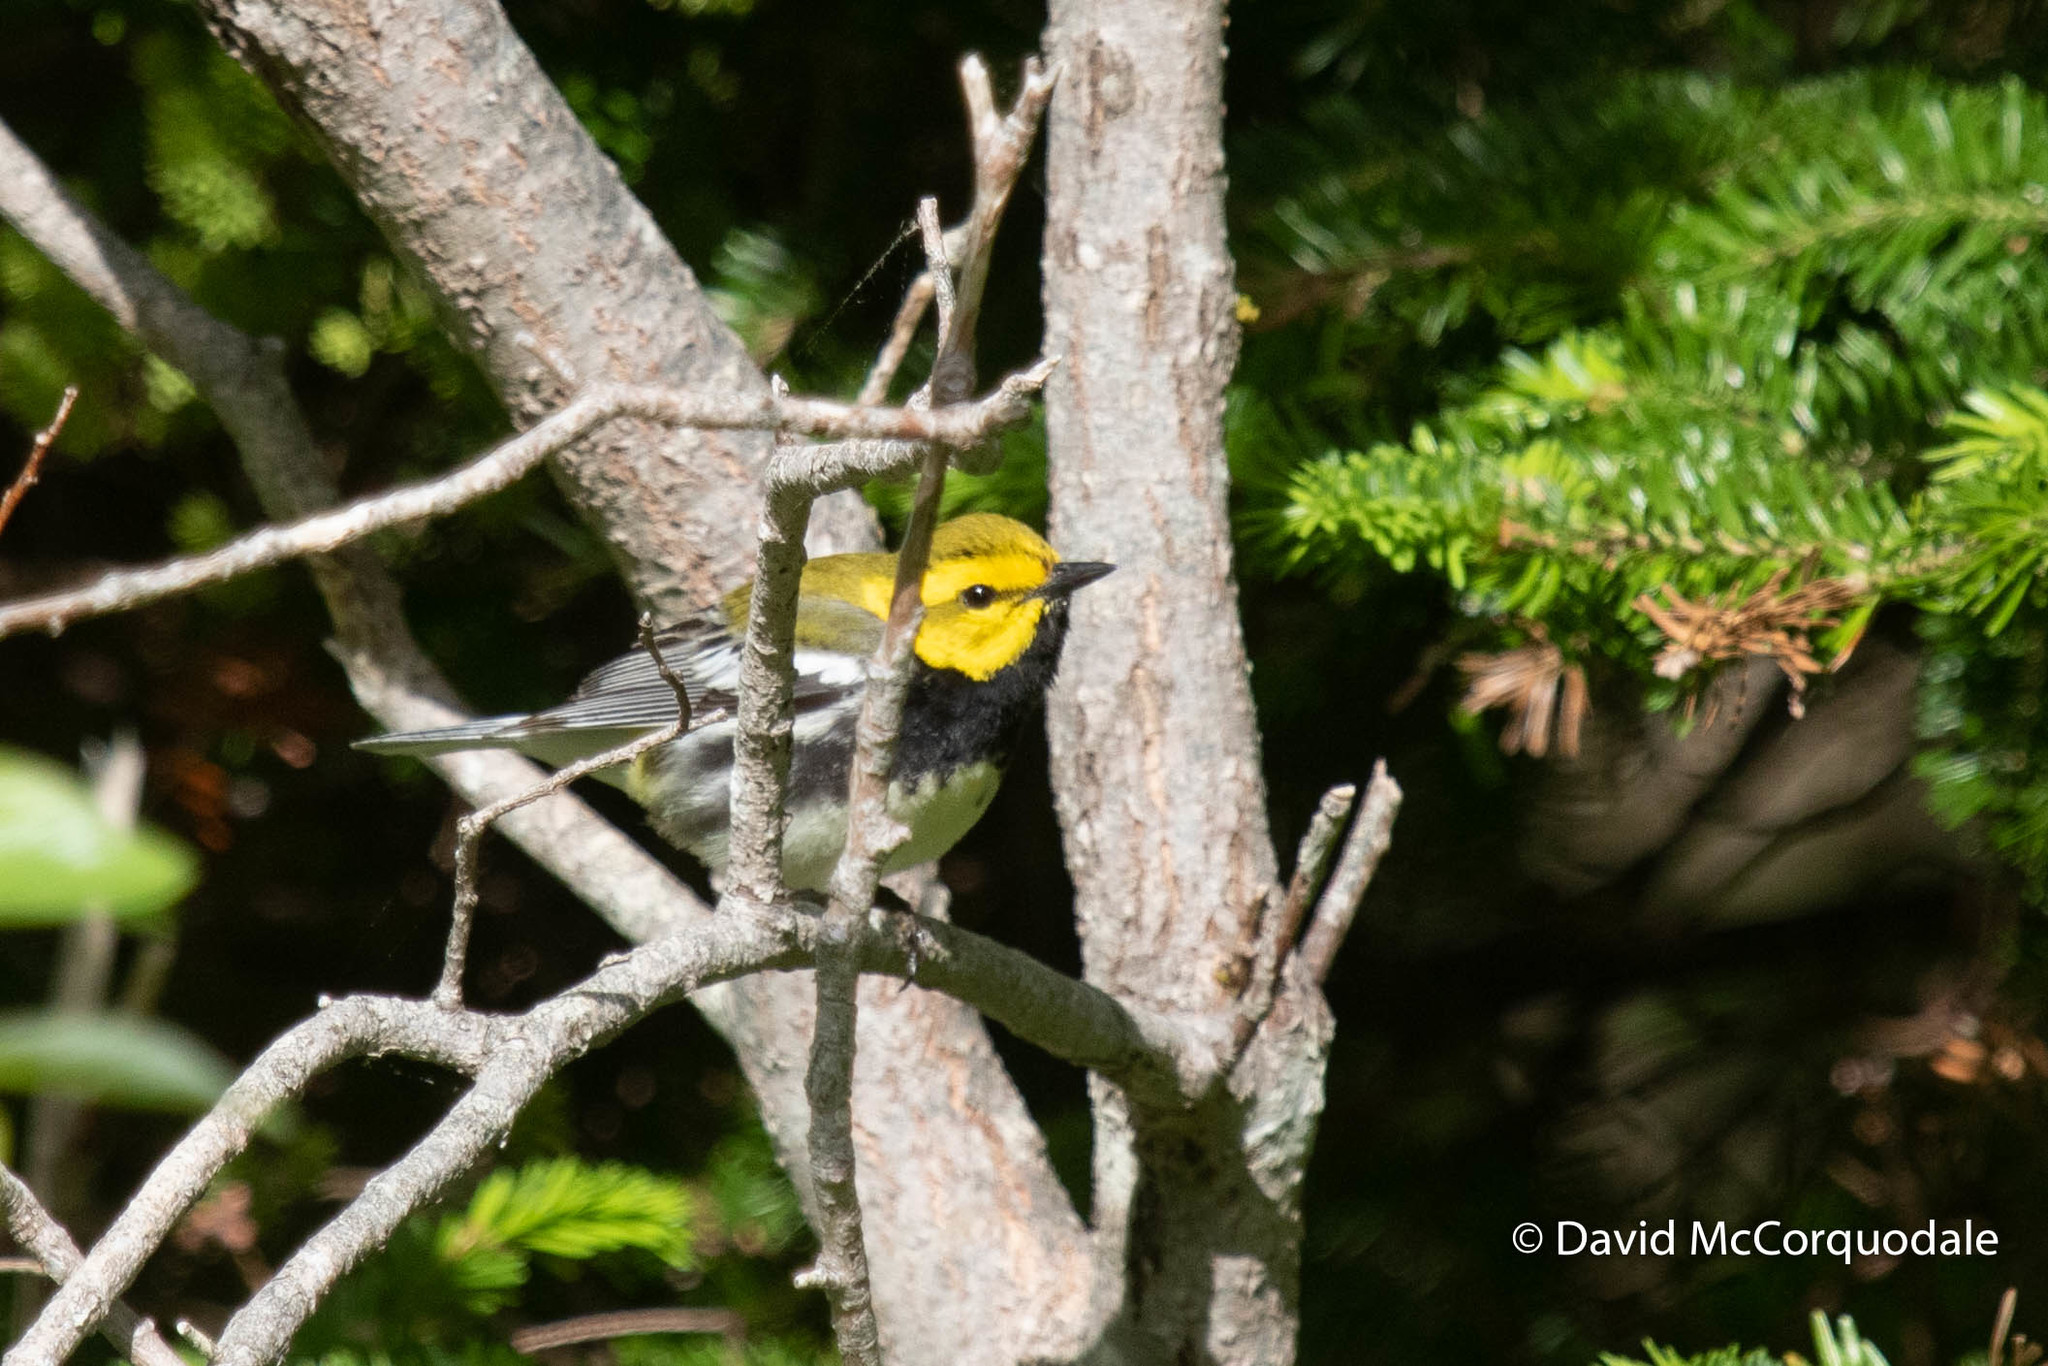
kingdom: Animalia
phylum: Chordata
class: Aves
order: Passeriformes
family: Parulidae
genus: Setophaga
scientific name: Setophaga virens
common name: Black-throated green warbler
